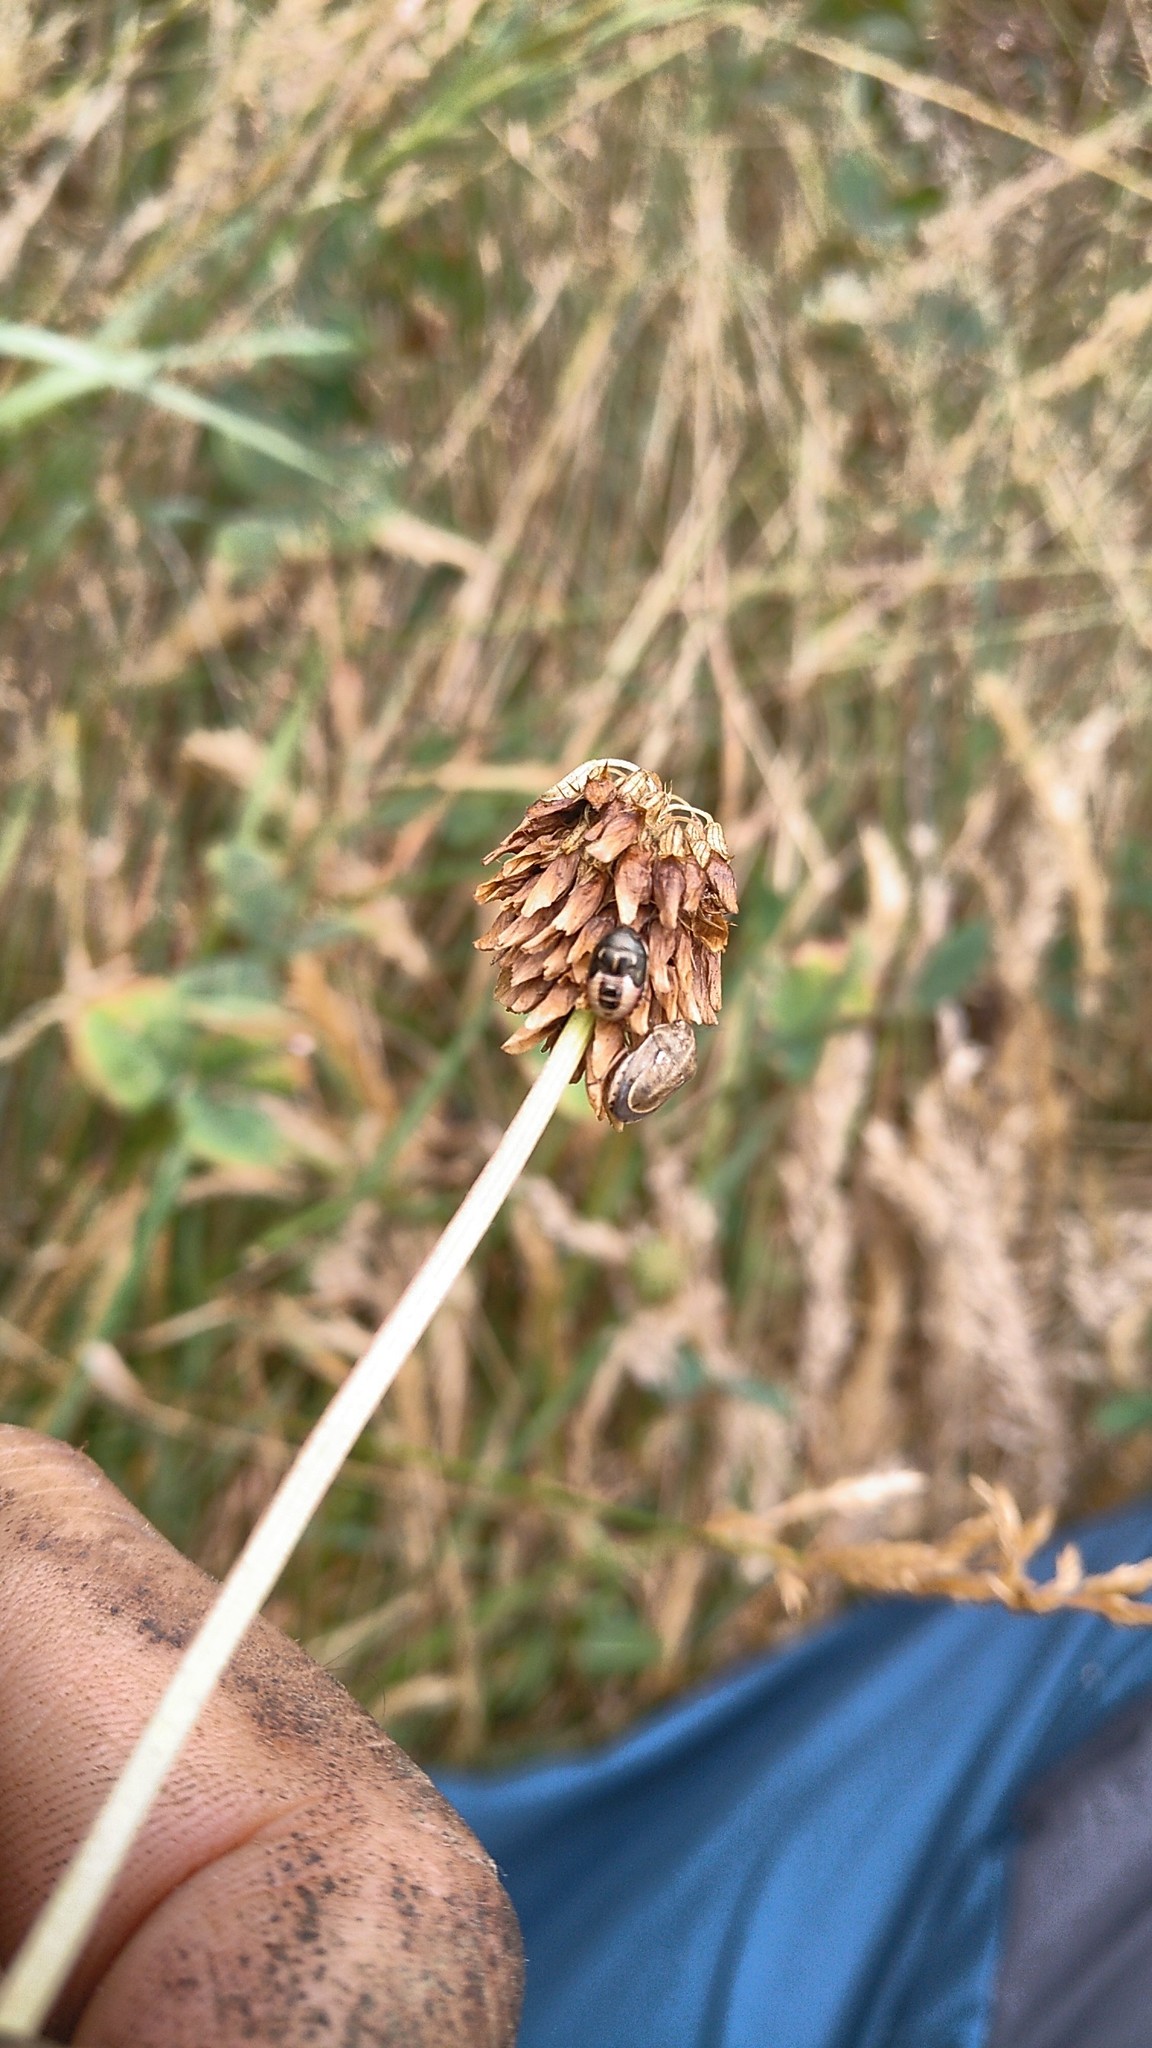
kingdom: Animalia
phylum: Arthropoda
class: Insecta
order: Hemiptera
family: Pentatomidae
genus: Neottiglossa
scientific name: Neottiglossa leporina
